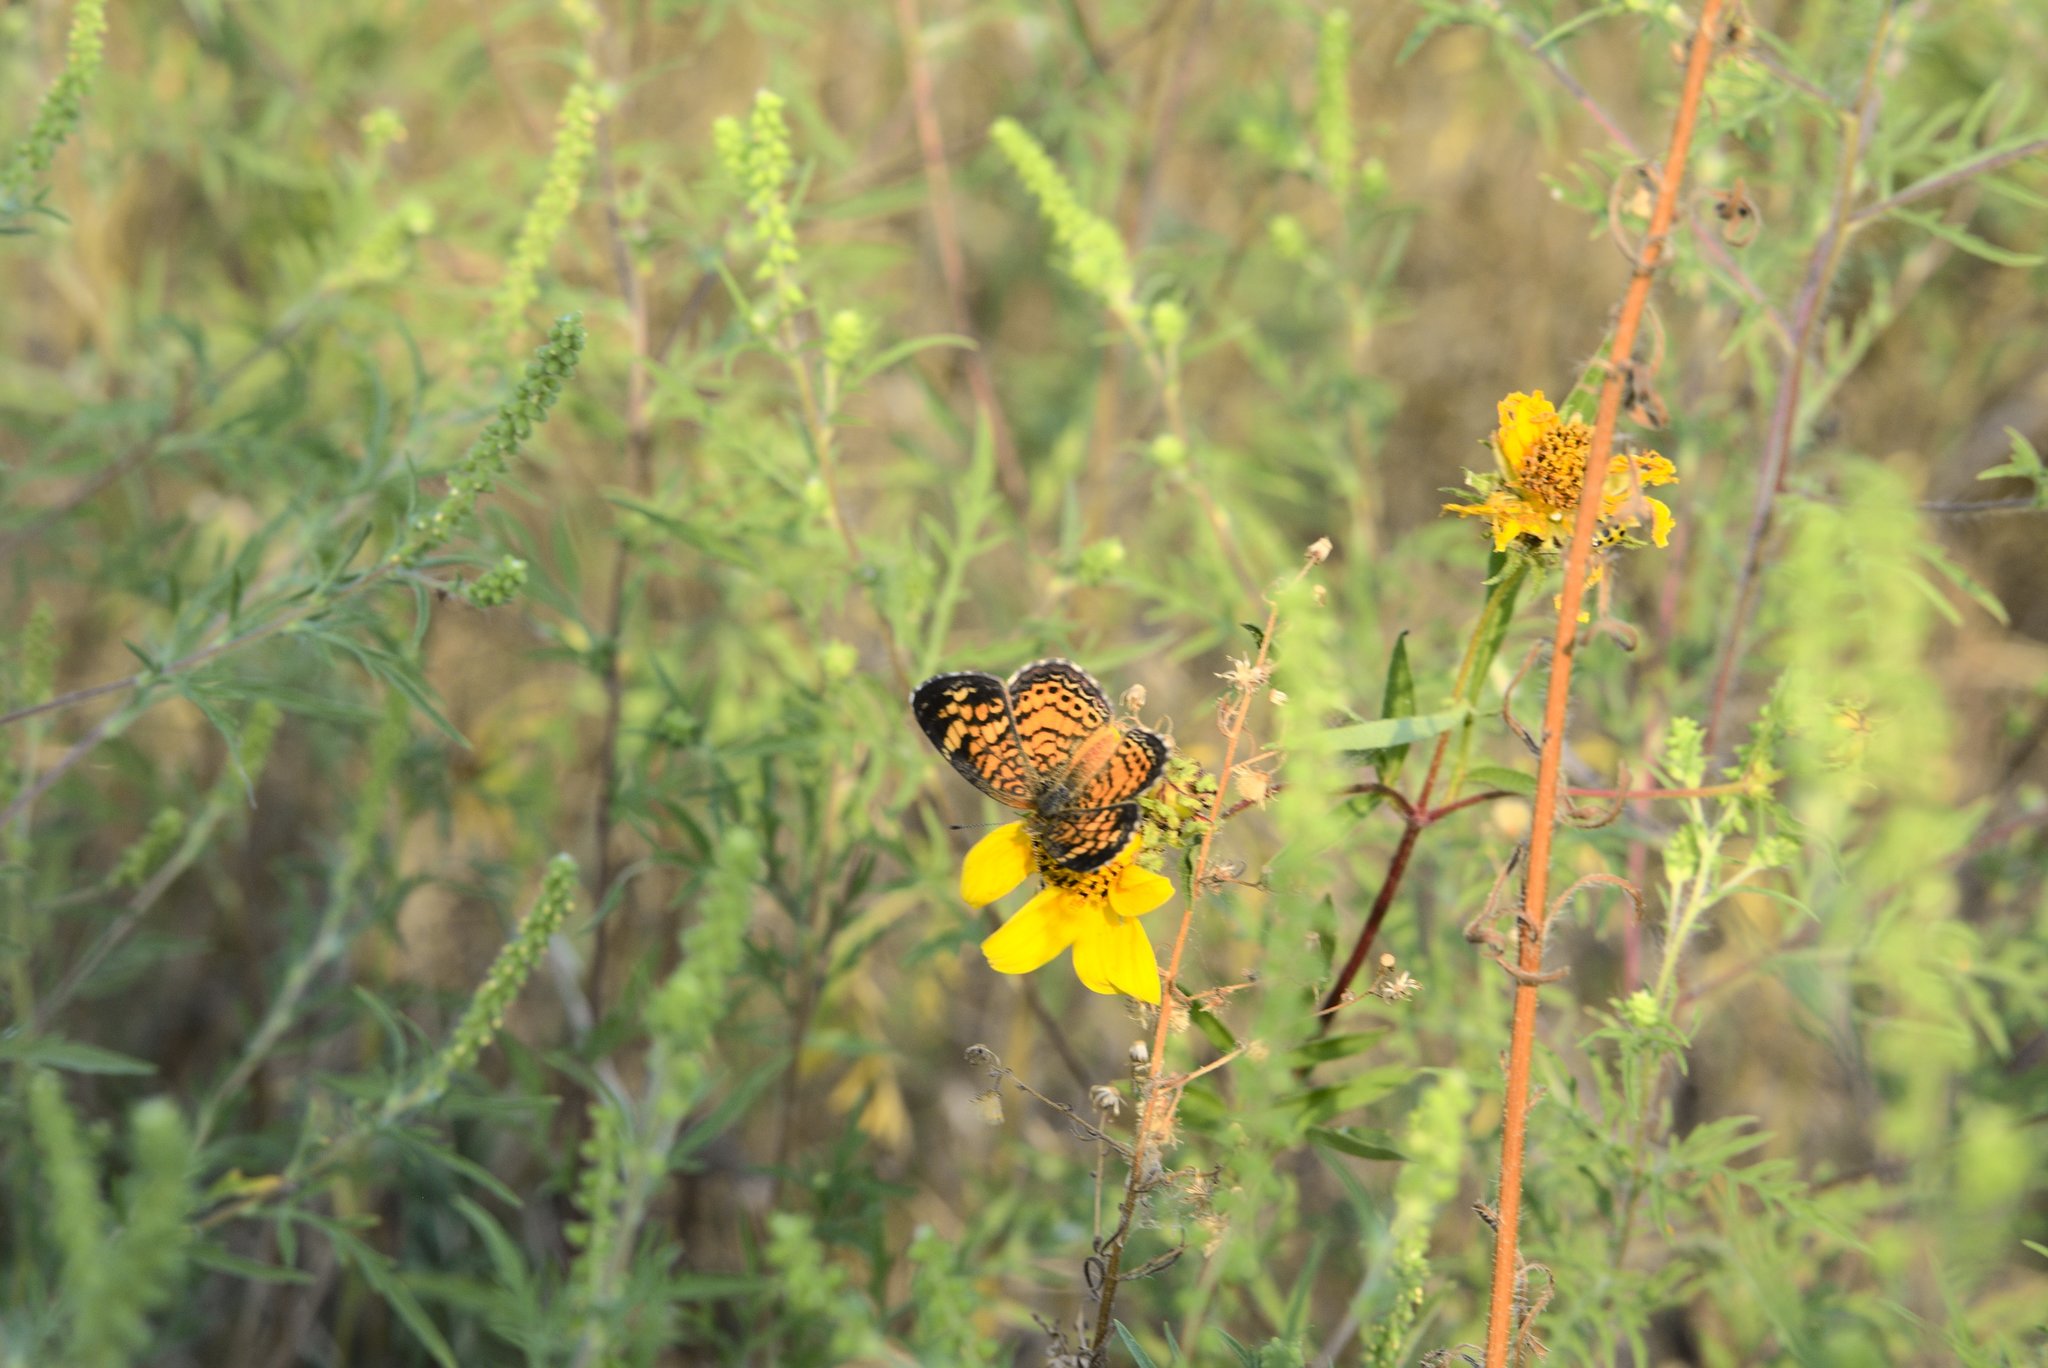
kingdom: Animalia
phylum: Arthropoda
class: Insecta
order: Lepidoptera
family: Nymphalidae
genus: Phyciodes
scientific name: Phyciodes tharos
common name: Pearl crescent
